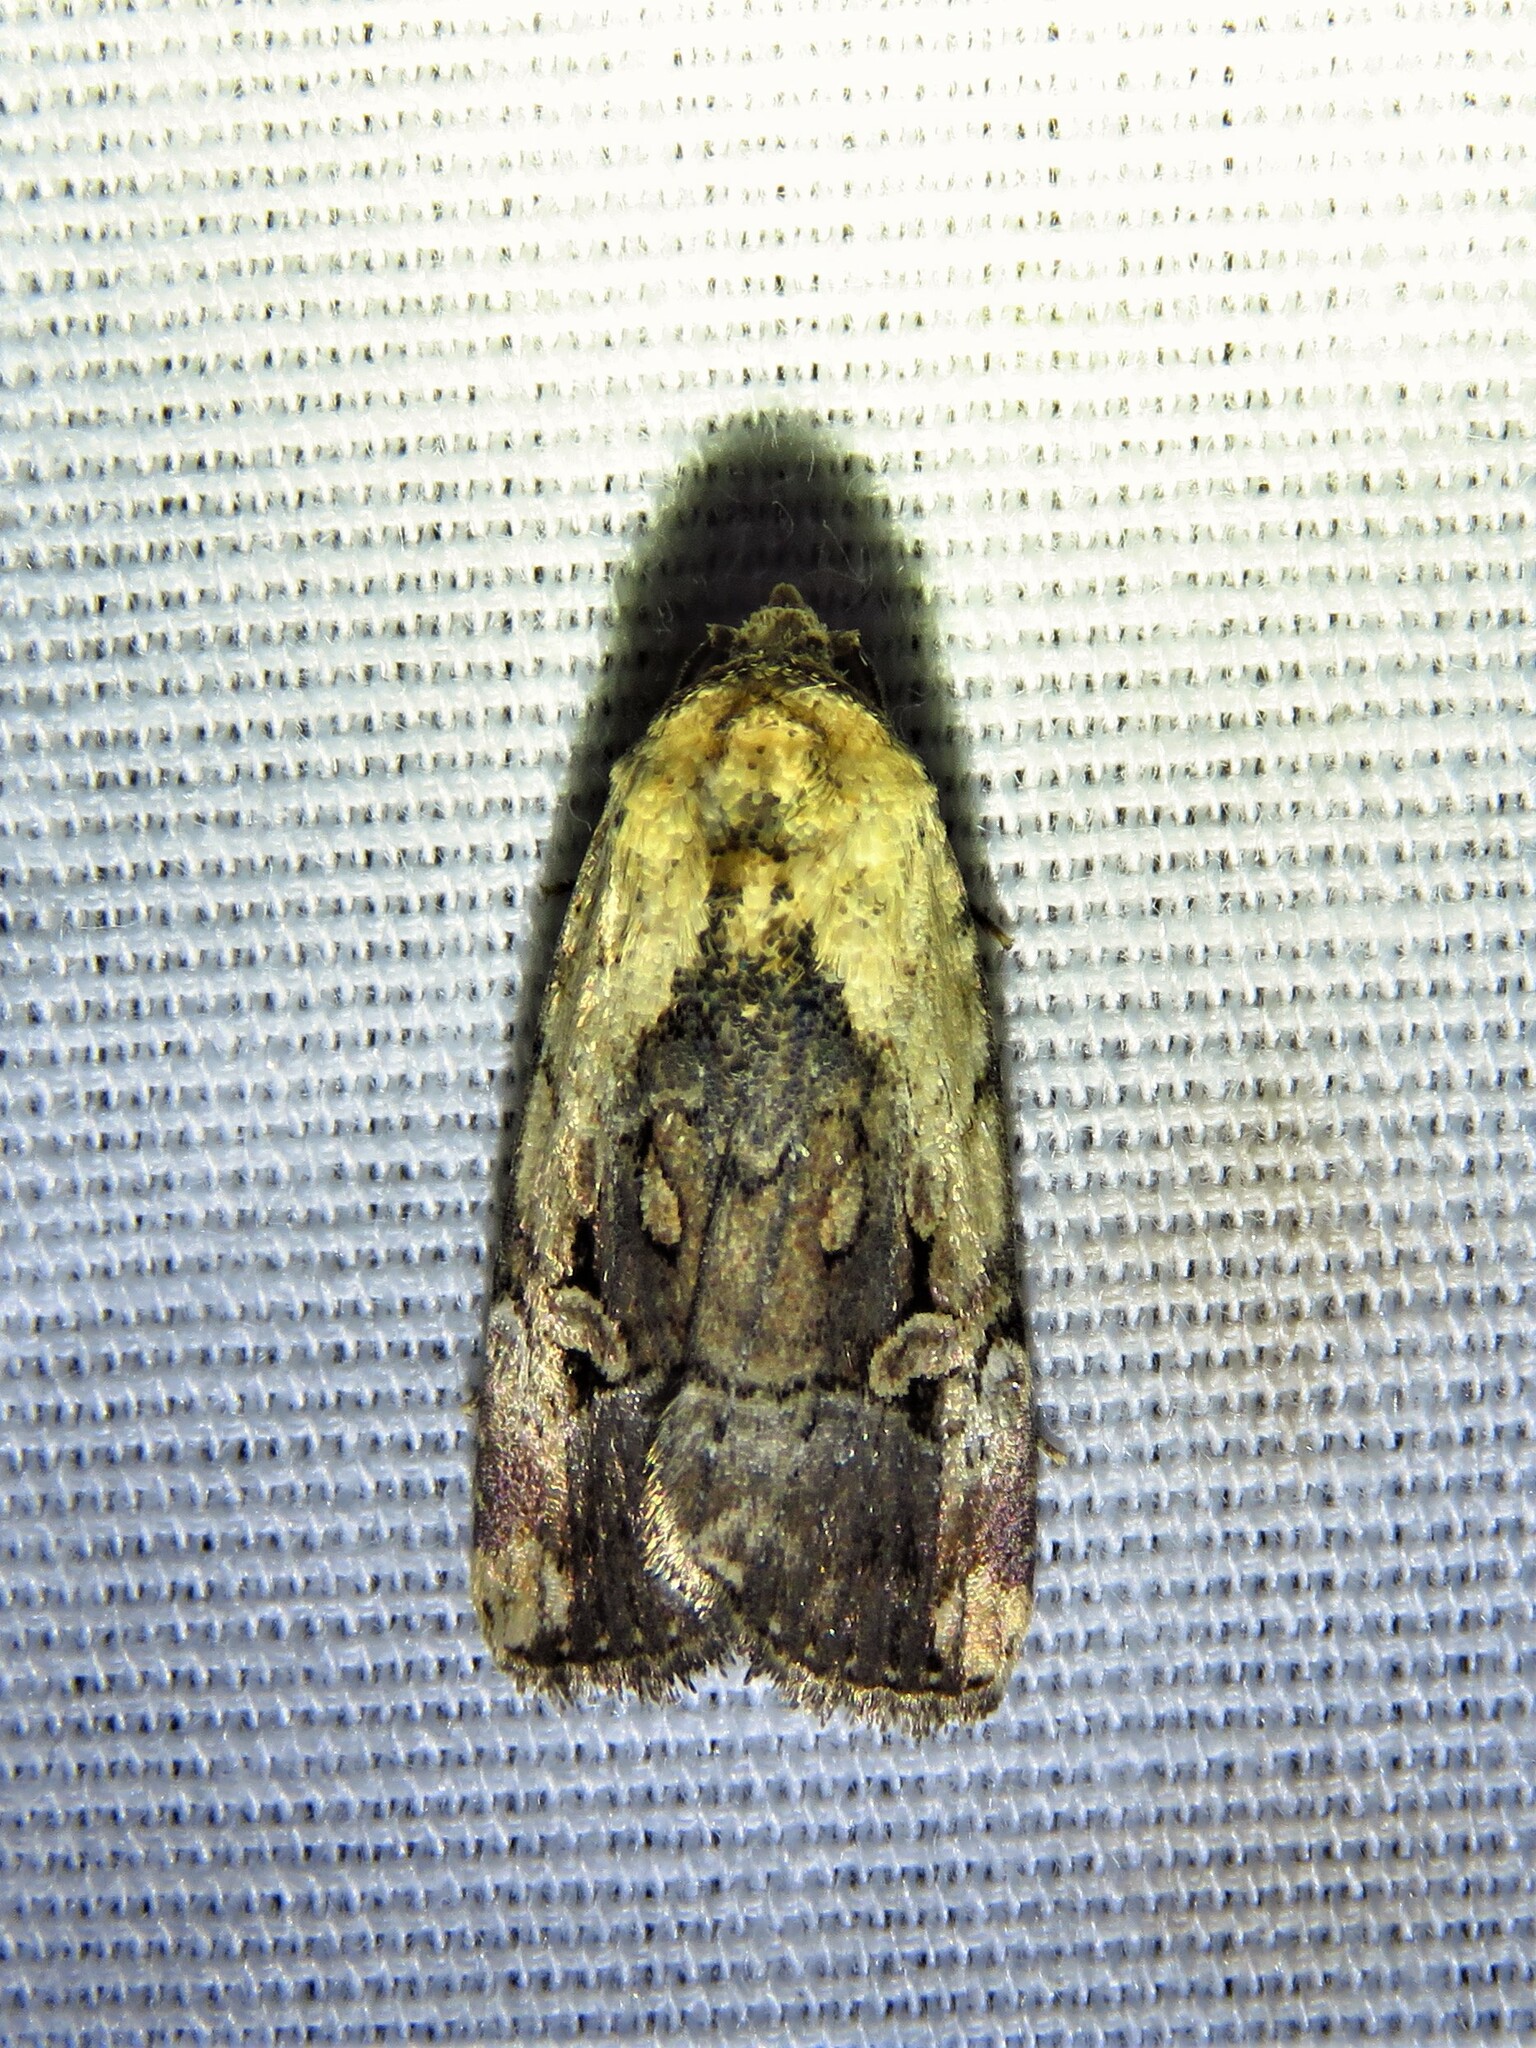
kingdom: Animalia
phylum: Arthropoda
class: Insecta
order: Lepidoptera
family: Noctuidae
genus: Elaphria
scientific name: Elaphria chalcedonia
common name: Chalcedony midget
